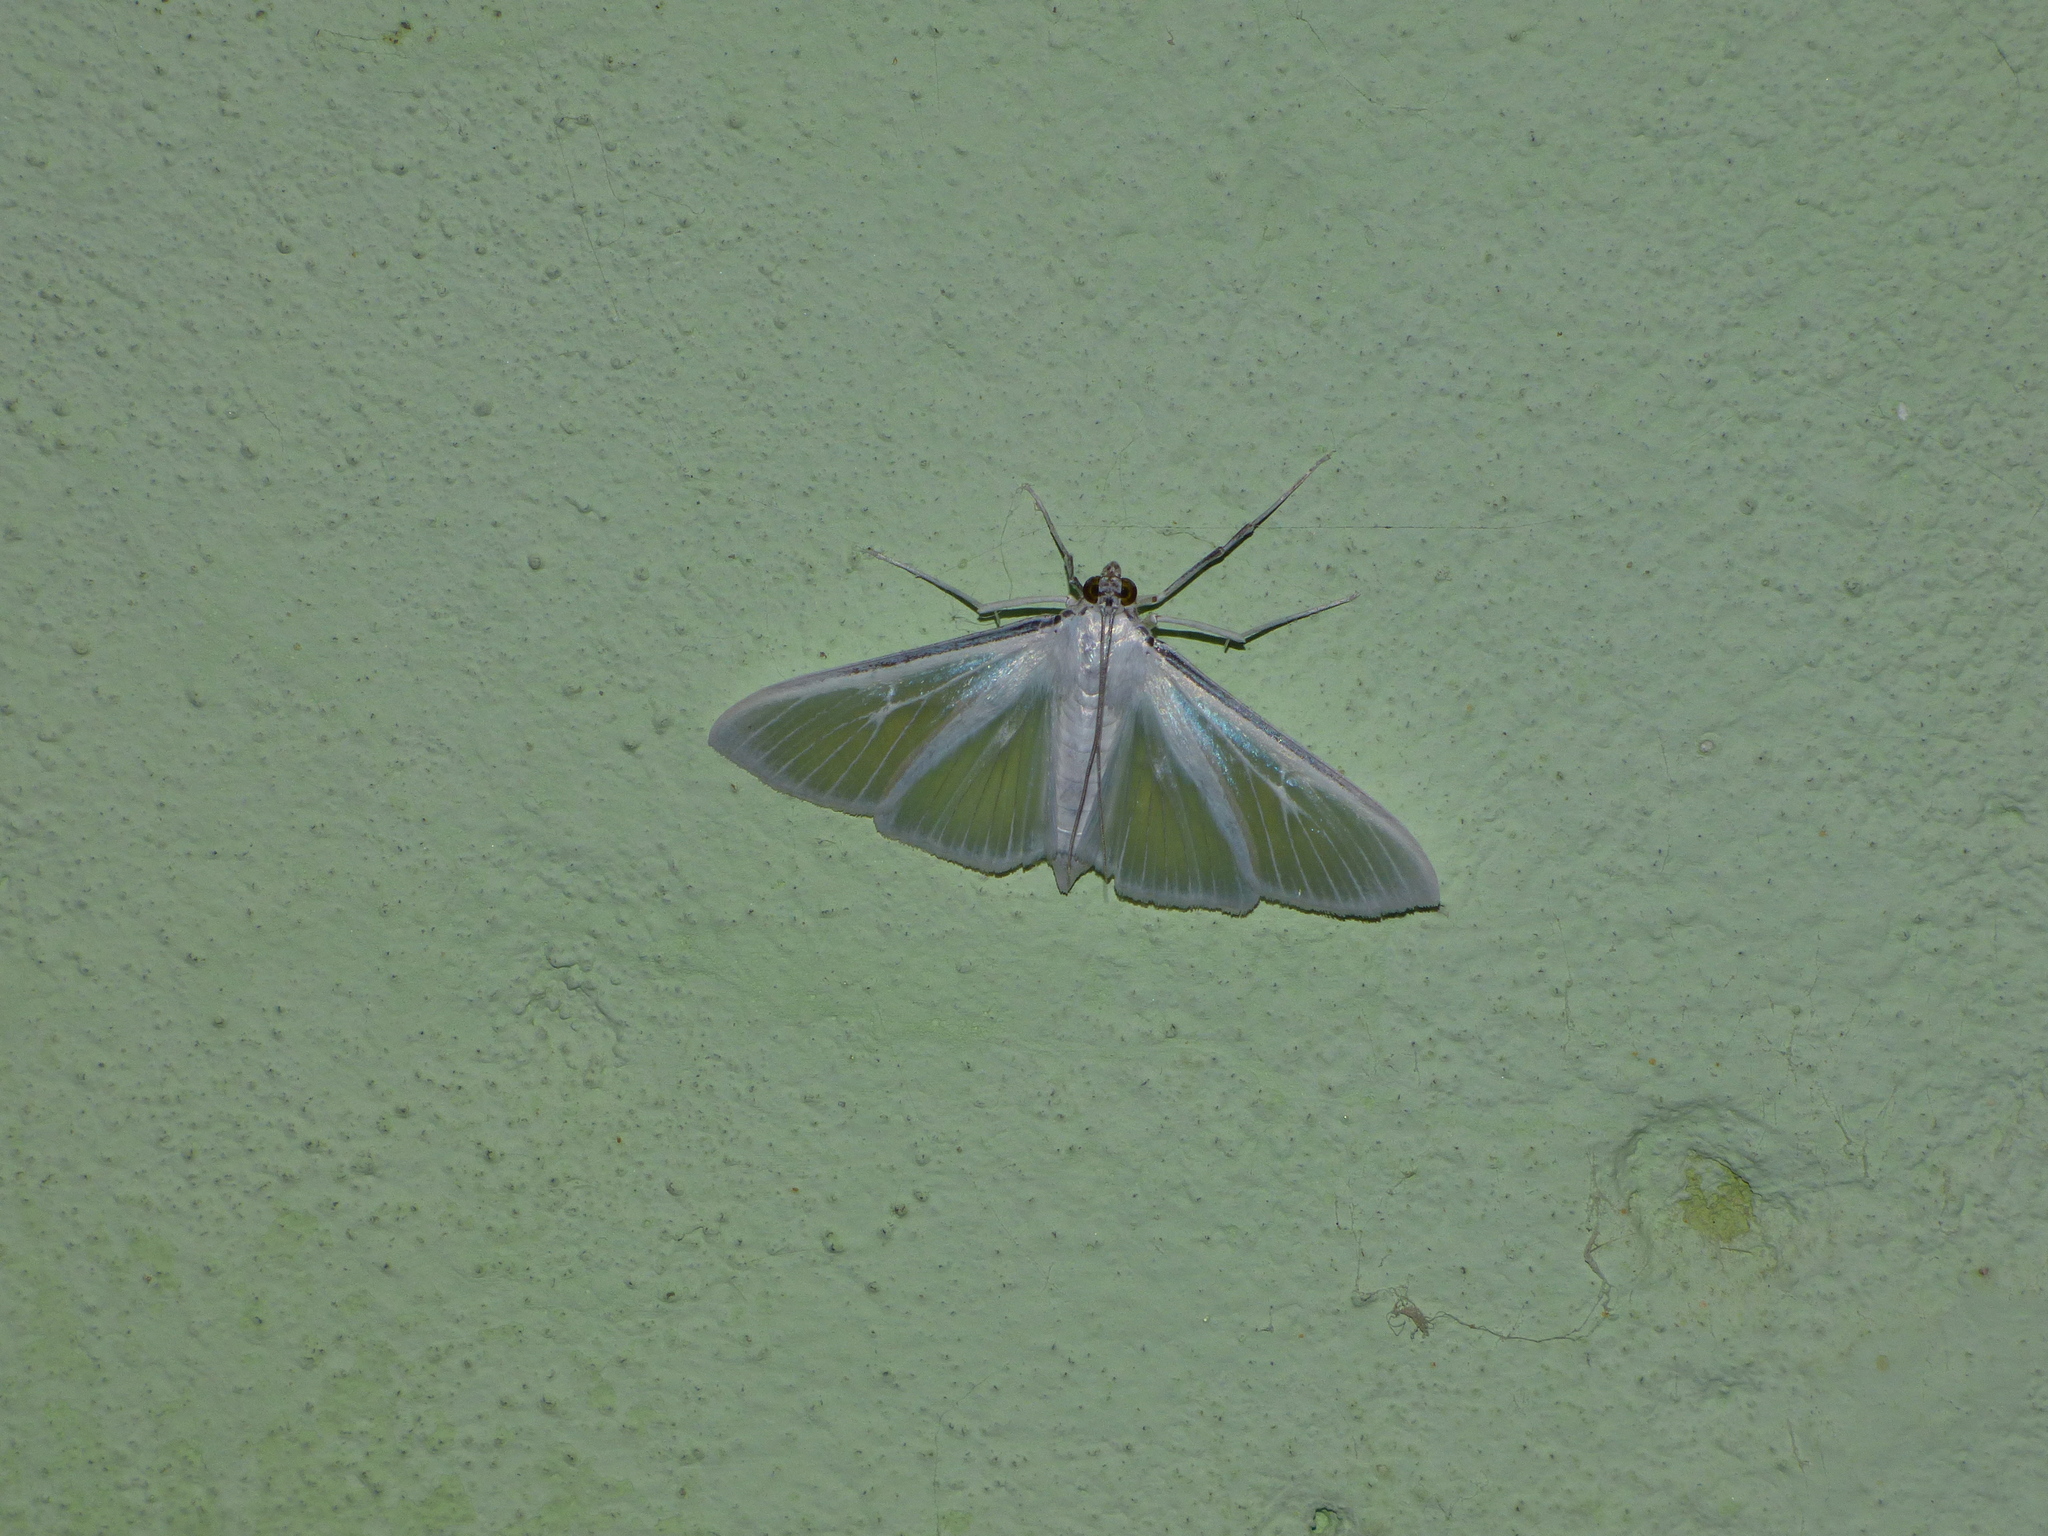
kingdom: Animalia
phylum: Arthropoda
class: Insecta
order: Lepidoptera
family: Crambidae
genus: Palpita
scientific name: Palpita flegia
